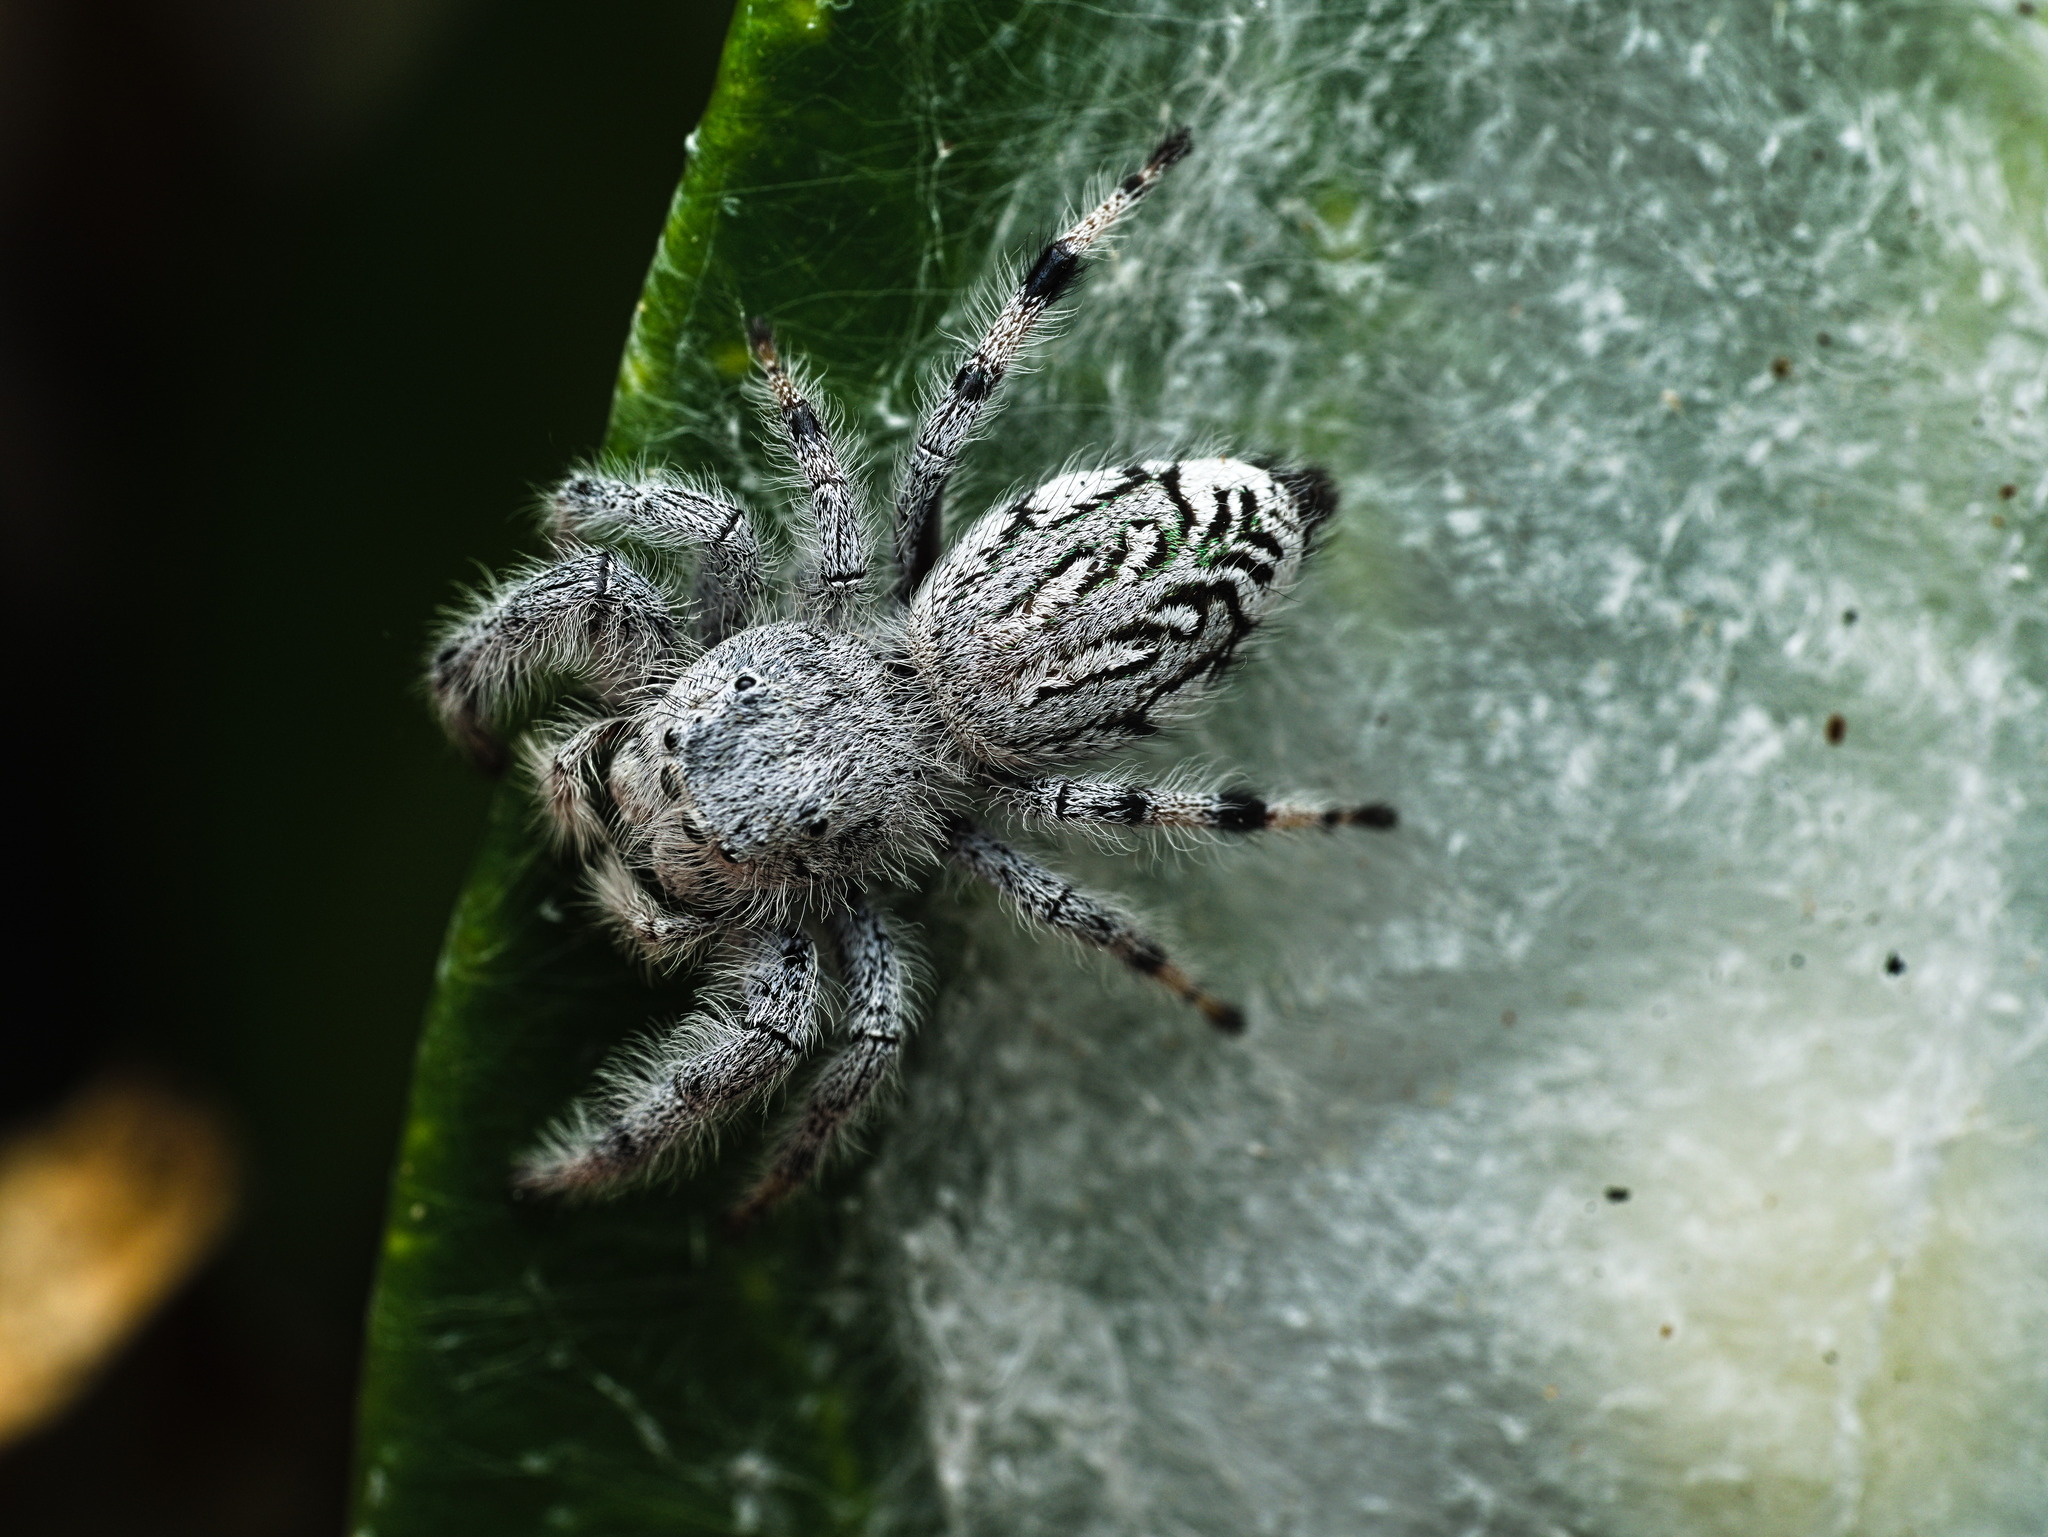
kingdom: Animalia
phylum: Arthropoda
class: Arachnida
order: Araneae
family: Salticidae
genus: Paraphidippus
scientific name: Paraphidippus fartilis
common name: Jumping spiders
